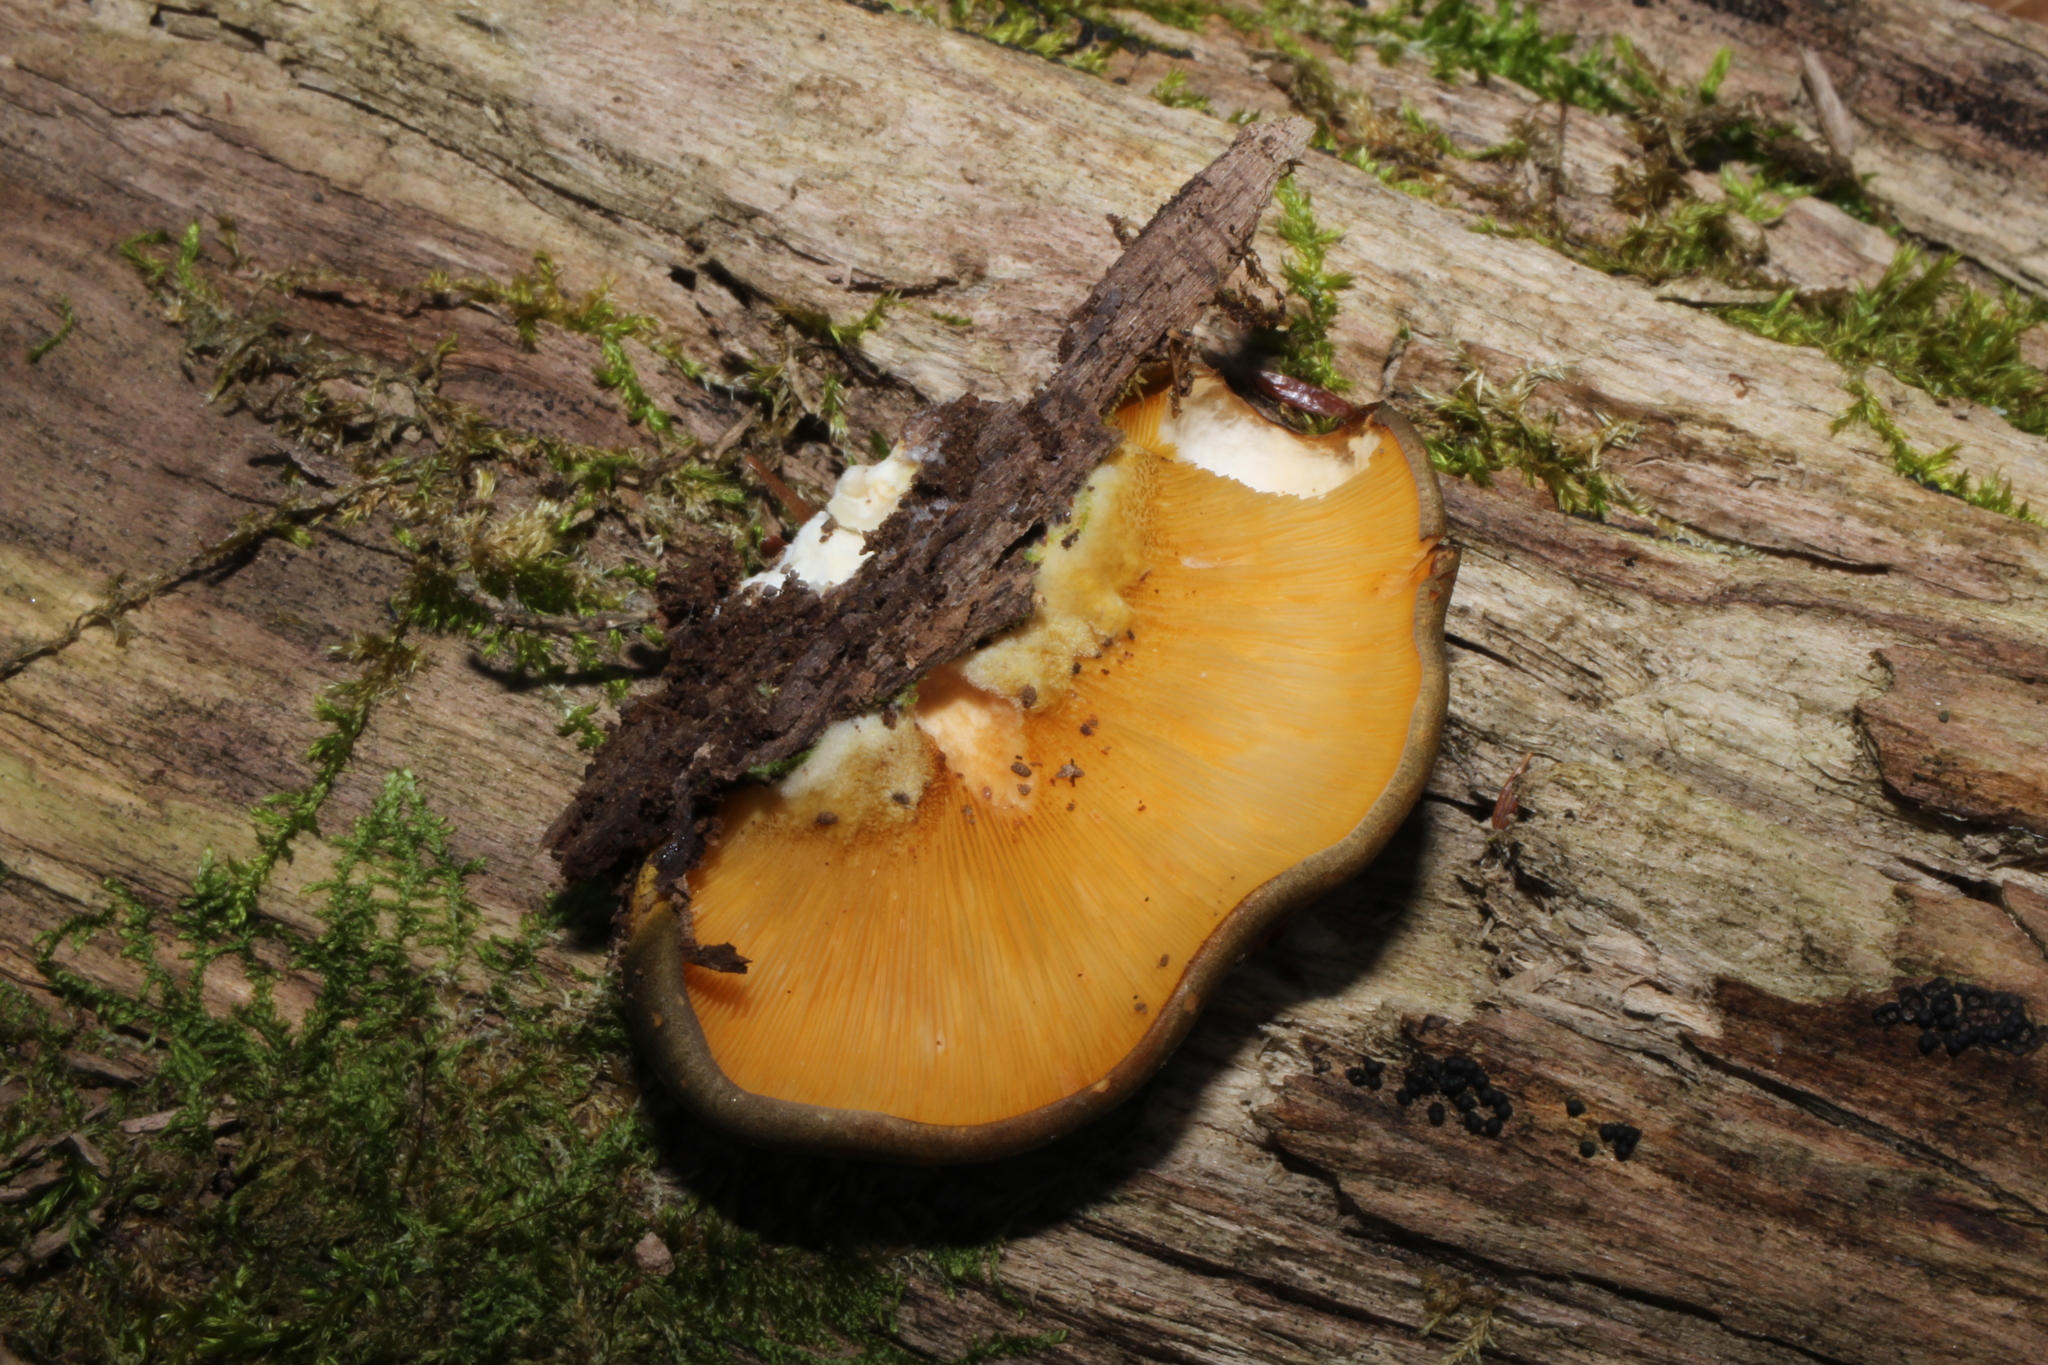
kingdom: Fungi
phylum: Basidiomycota
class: Agaricomycetes
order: Agaricales
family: Sarcomyxaceae
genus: Sarcomyxa
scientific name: Sarcomyxa serotina
